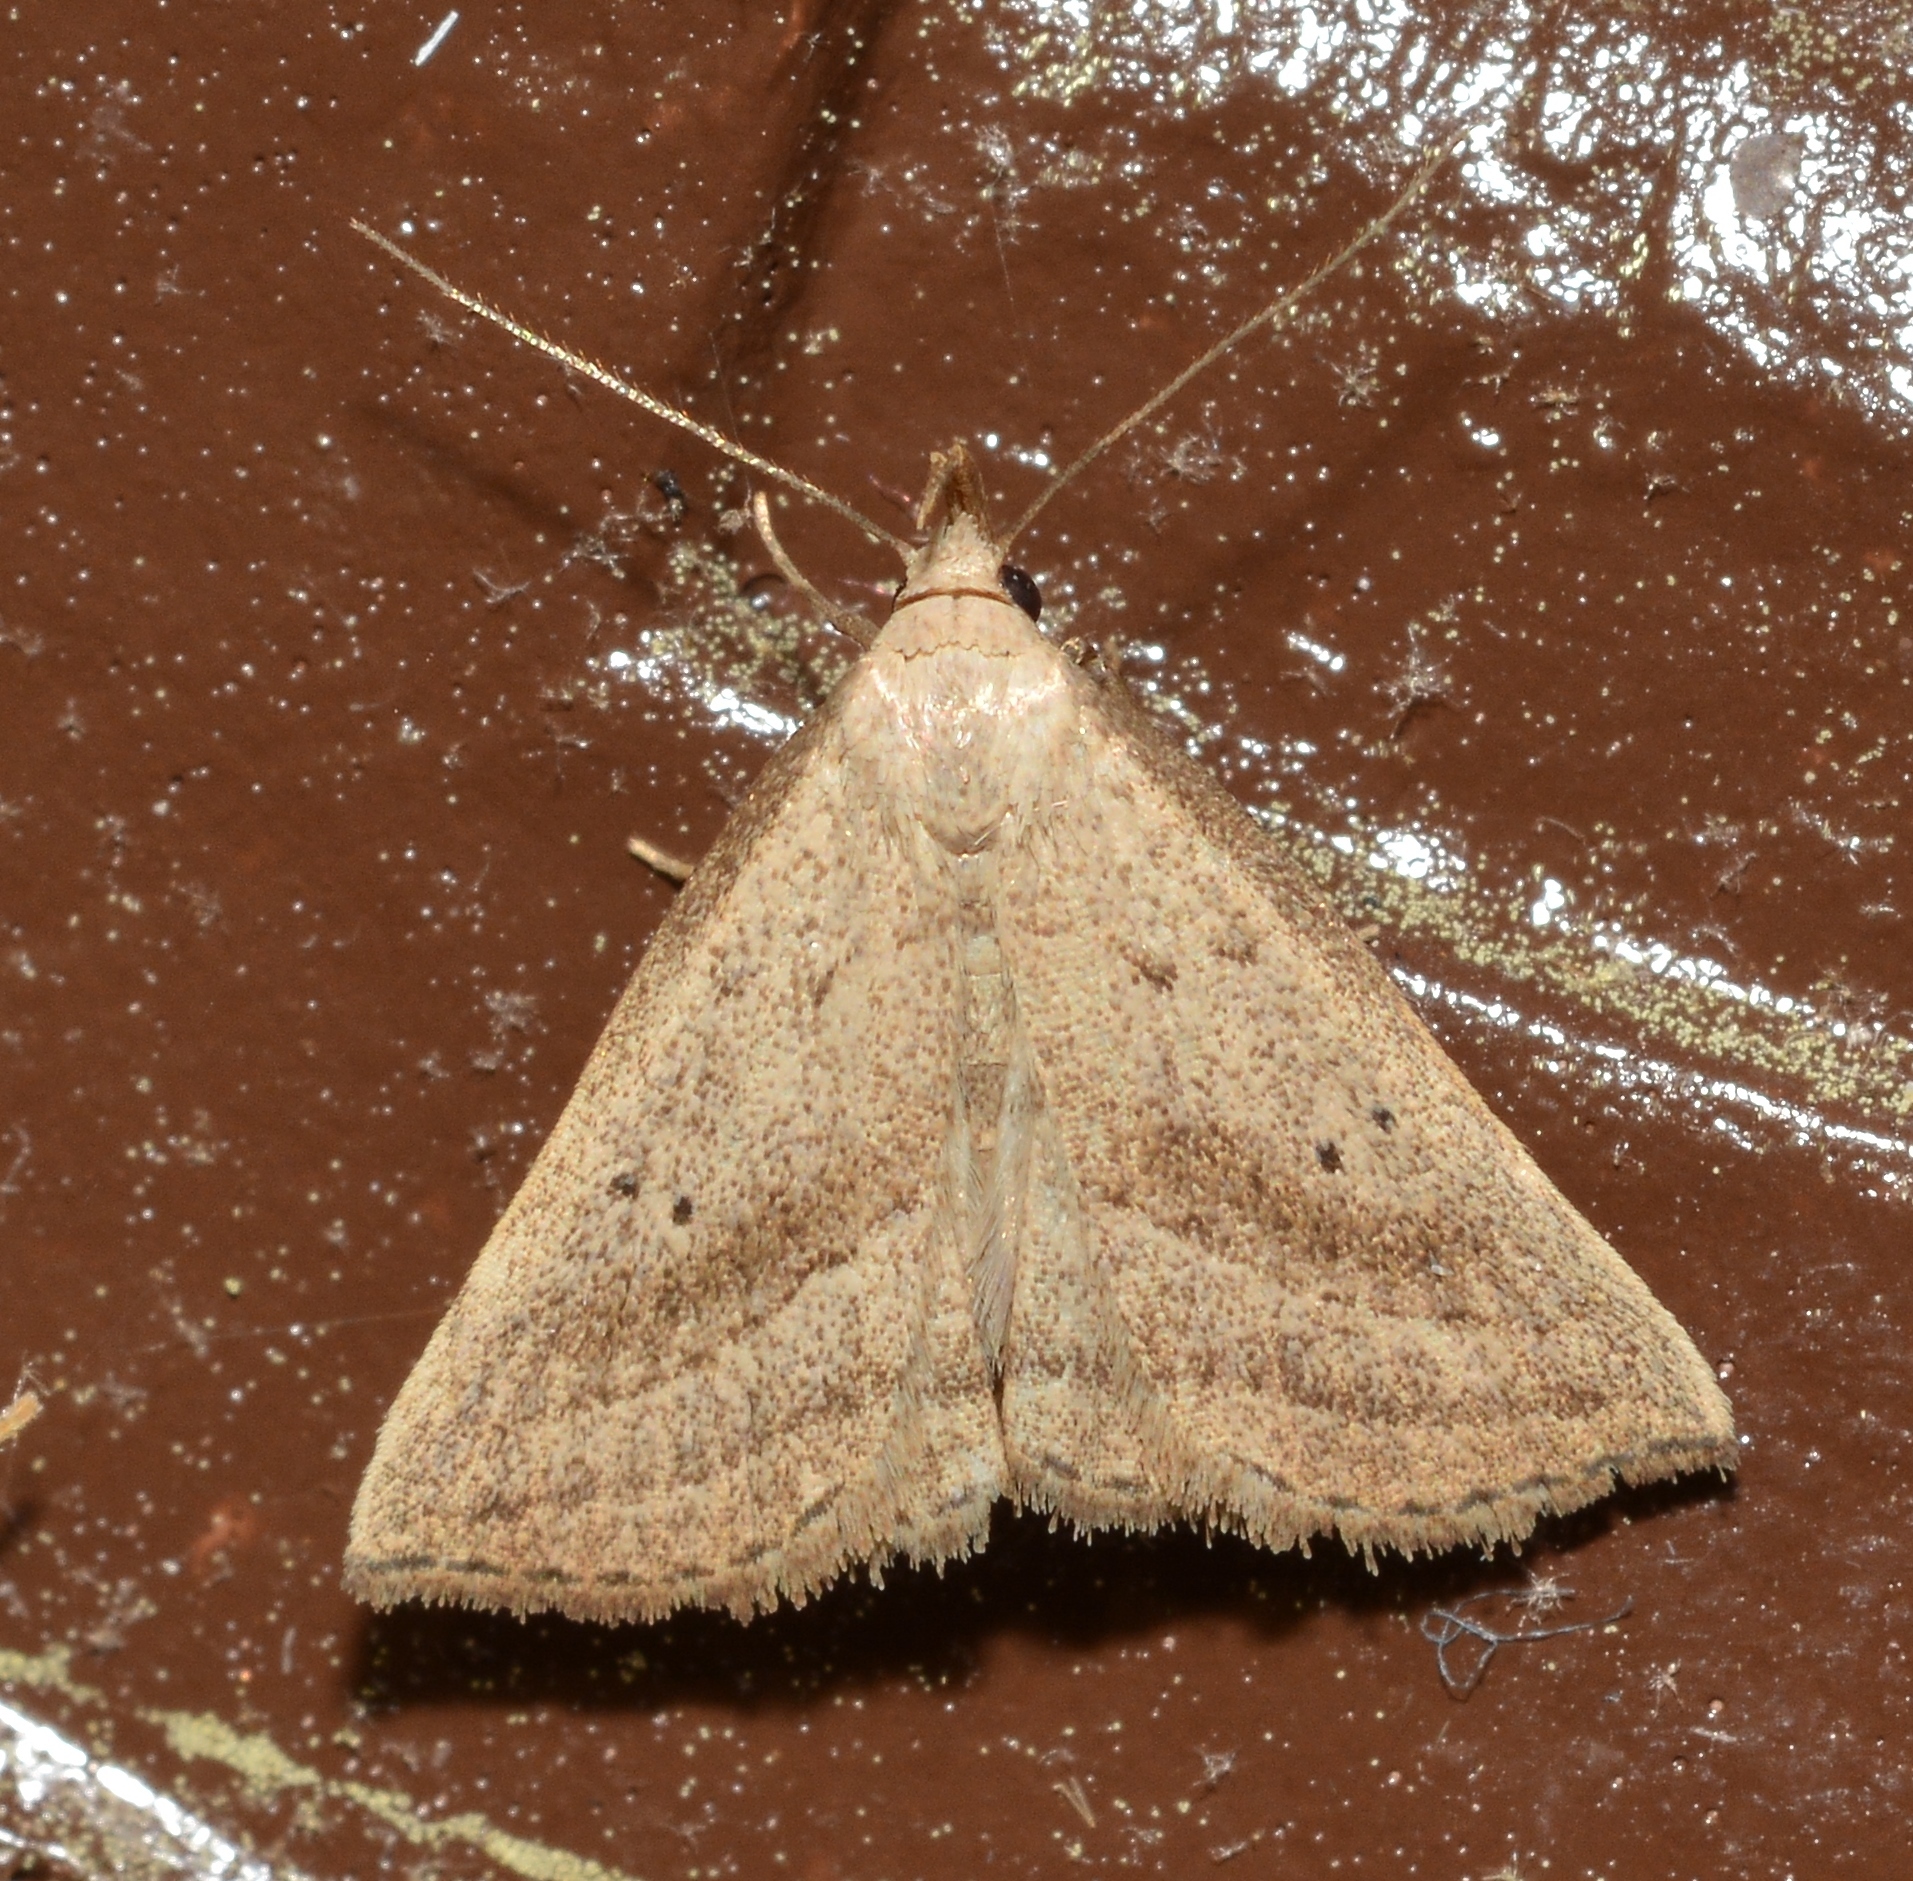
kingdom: Animalia
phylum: Arthropoda
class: Insecta
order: Lepidoptera
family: Erebidae
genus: Macrochilo
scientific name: Macrochilo hypocritalis
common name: Twin-dotted owlet
